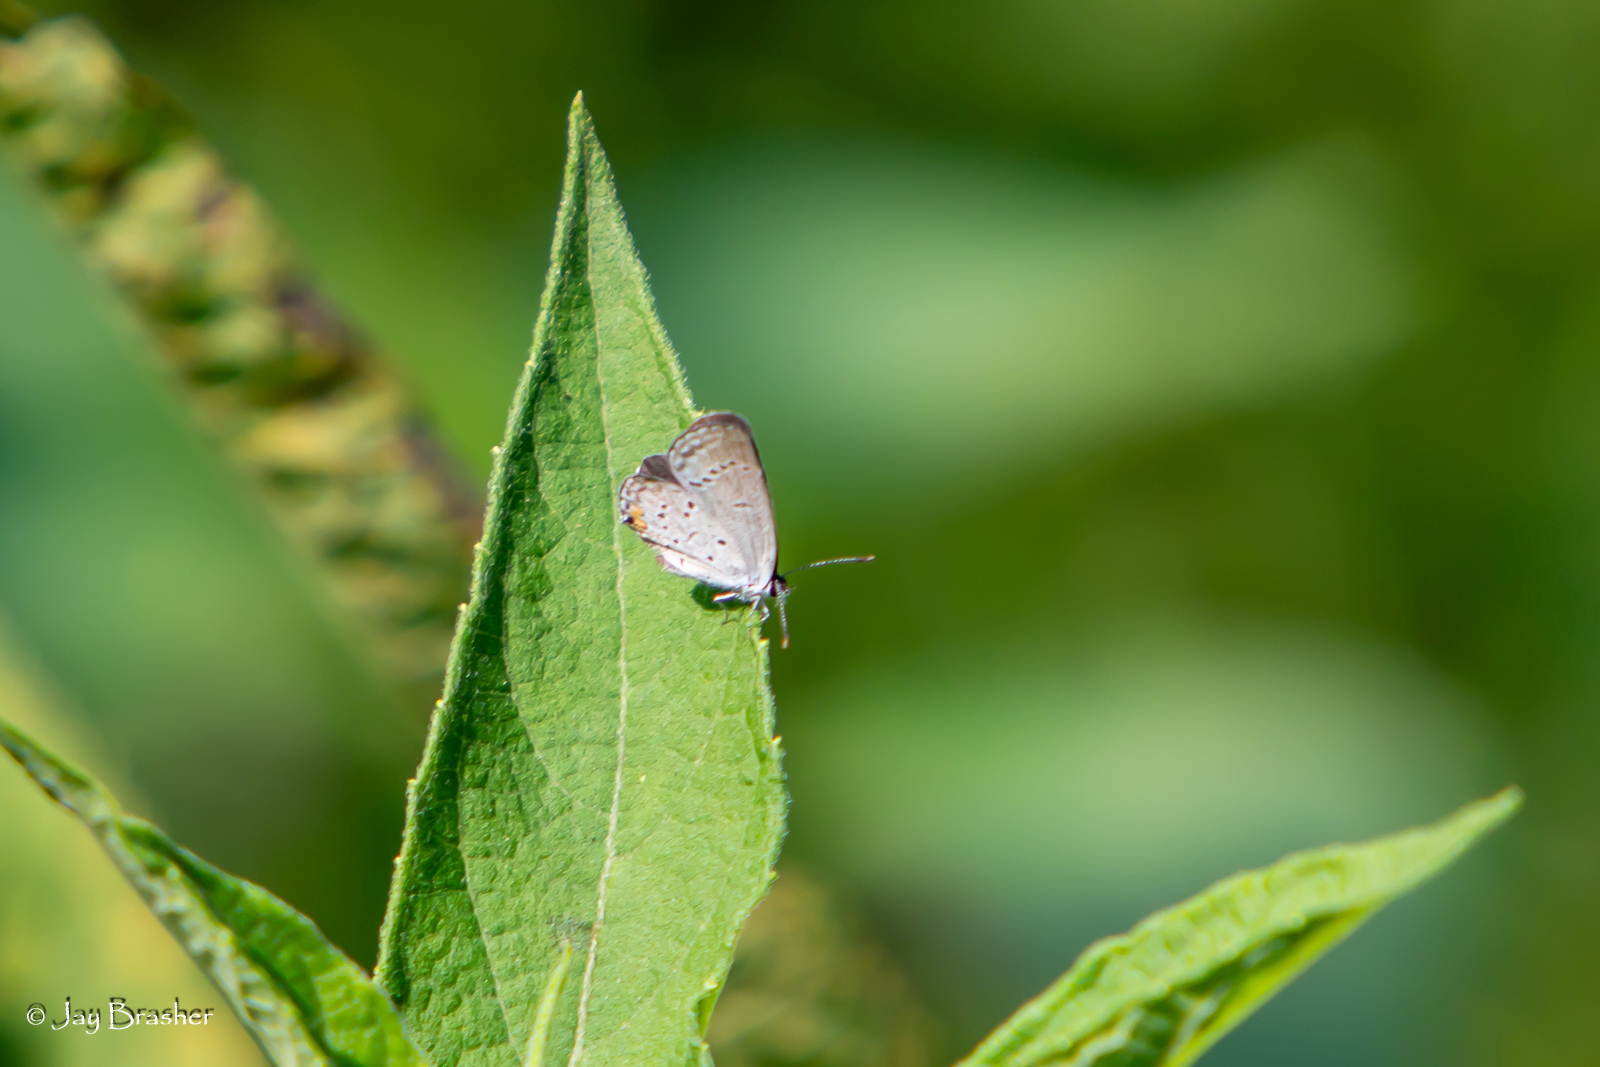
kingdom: Animalia
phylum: Arthropoda
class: Insecta
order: Lepidoptera
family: Lycaenidae
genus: Elkalyce
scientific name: Elkalyce comyntas
